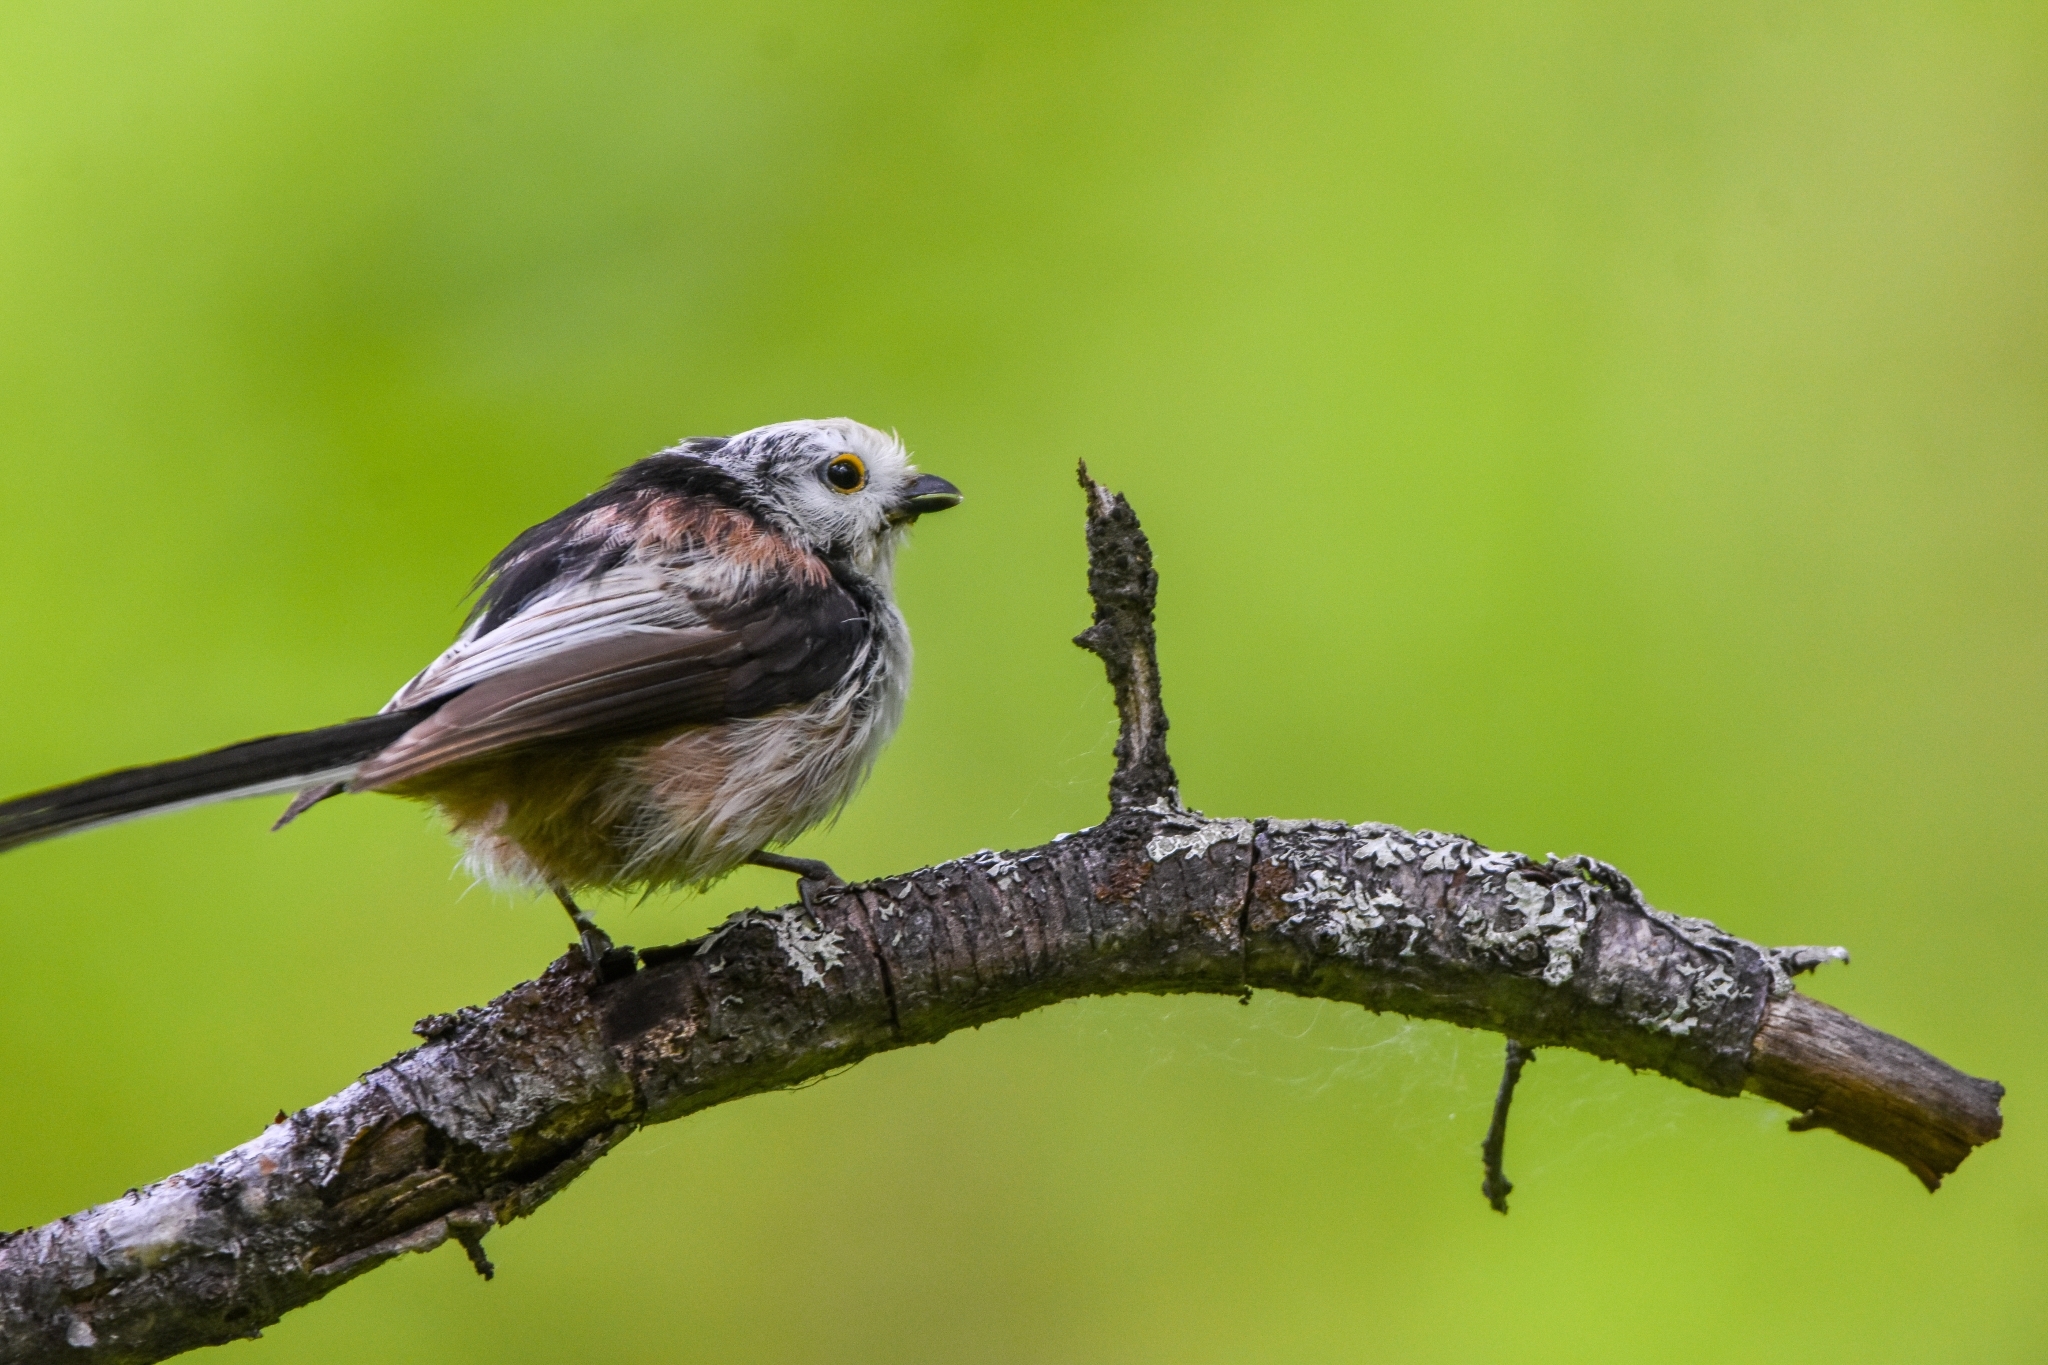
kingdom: Animalia
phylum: Chordata
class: Aves
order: Passeriformes
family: Aegithalidae
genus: Aegithalos
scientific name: Aegithalos caudatus
